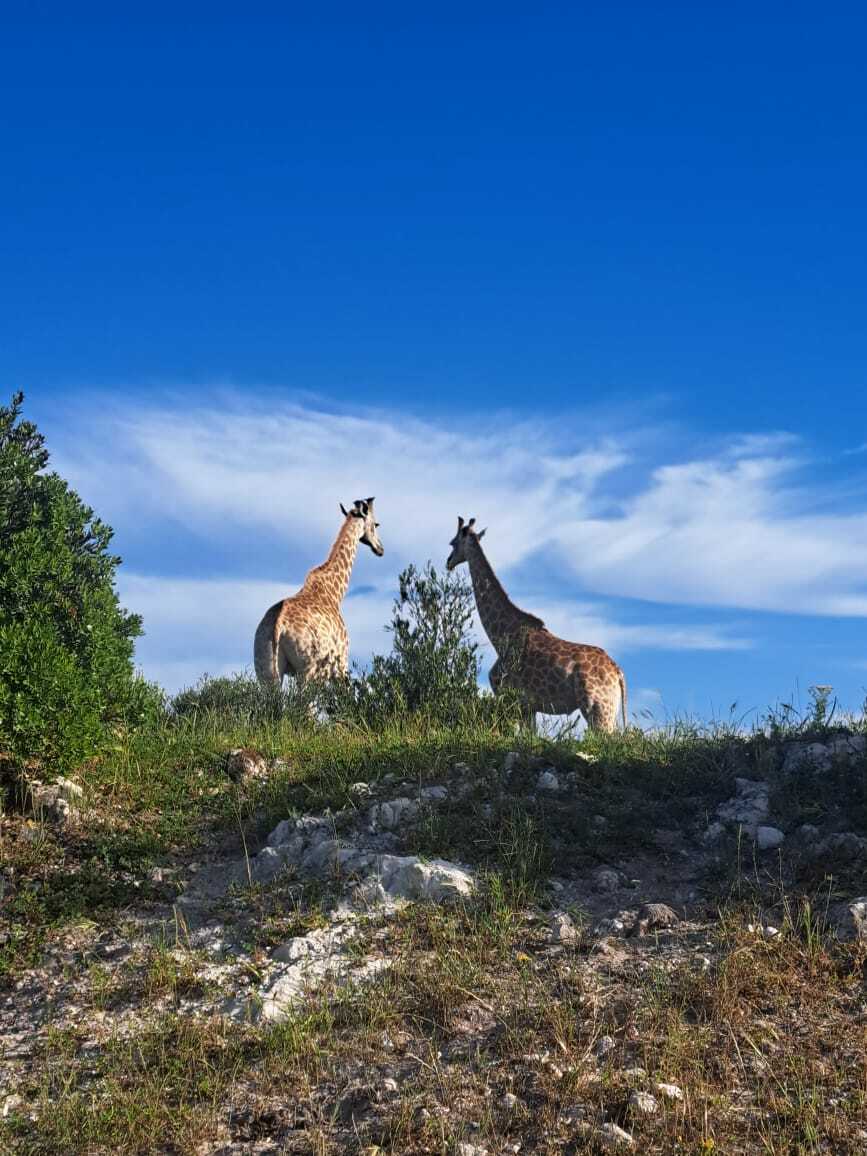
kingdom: Animalia
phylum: Chordata
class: Mammalia
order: Artiodactyla
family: Giraffidae
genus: Giraffa
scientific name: Giraffa giraffa
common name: Southern giraffe
